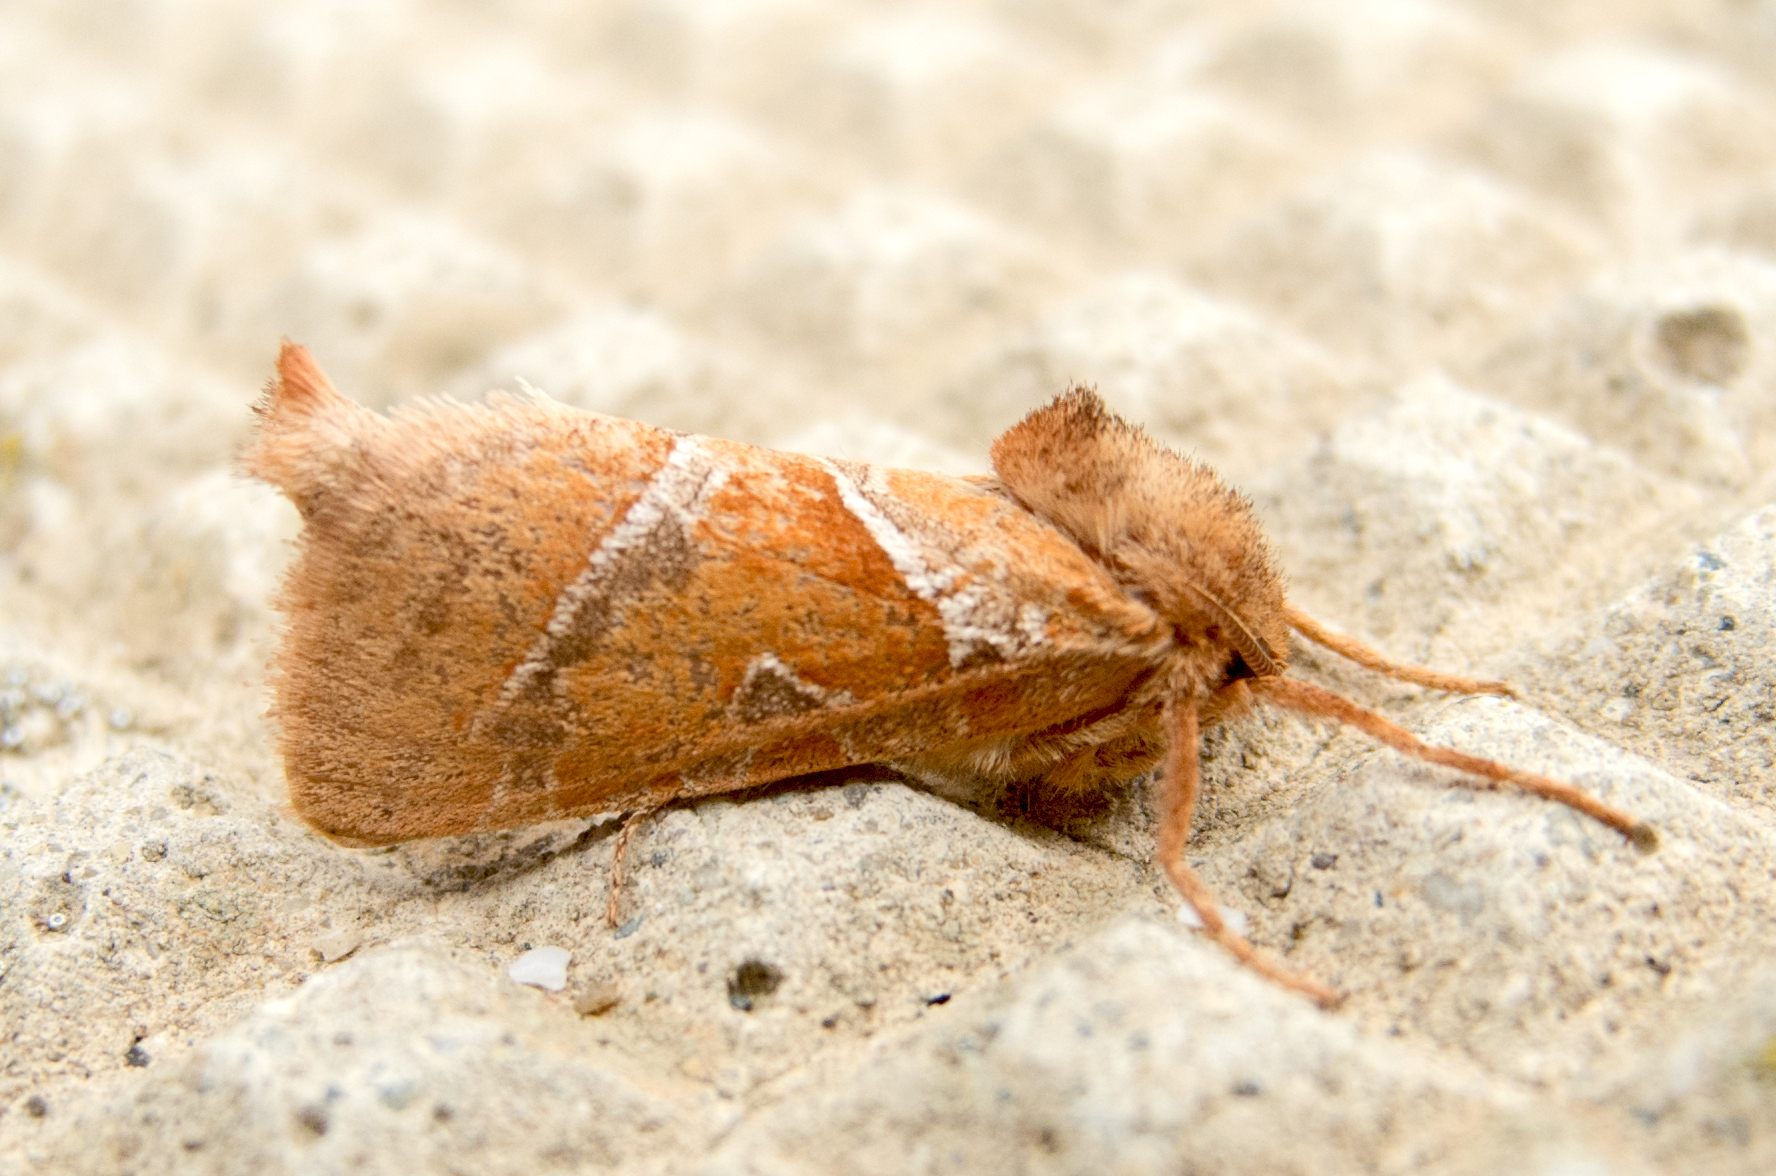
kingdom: Animalia
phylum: Arthropoda
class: Insecta
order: Lepidoptera
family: Hepialidae
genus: Triodia
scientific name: Triodia sylvina
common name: Orange swift
